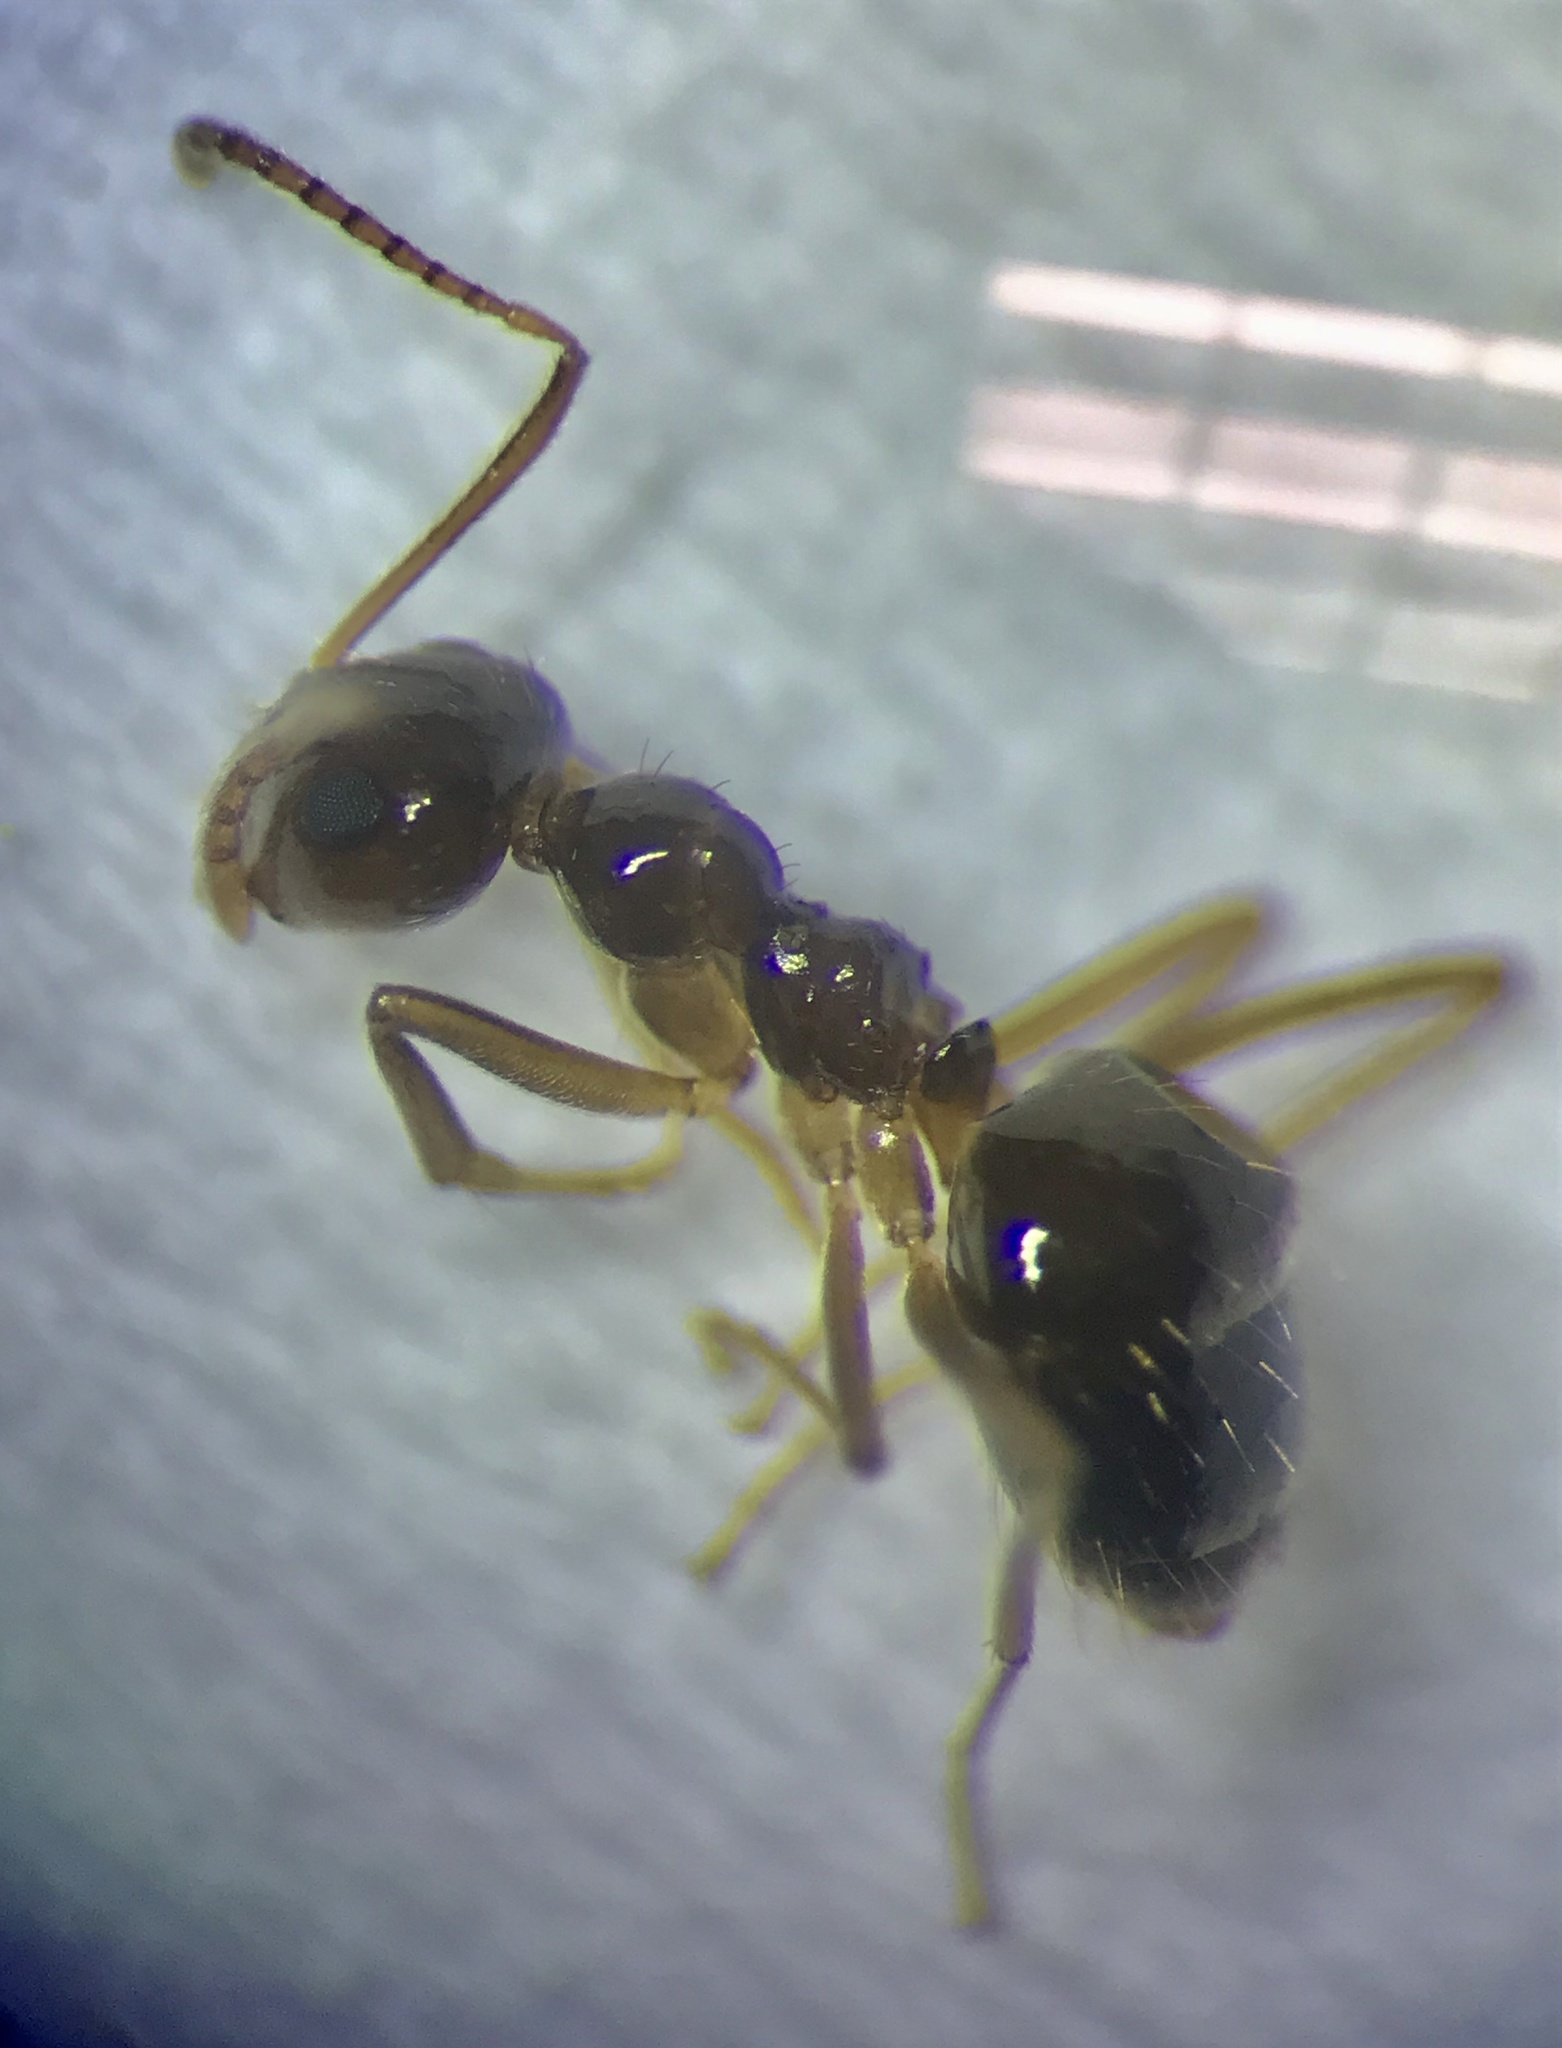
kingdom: Animalia
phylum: Arthropoda
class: Insecta
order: Hymenoptera
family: Formicidae
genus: Prenolepis
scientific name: Prenolepis imparis
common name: Small honey ant
